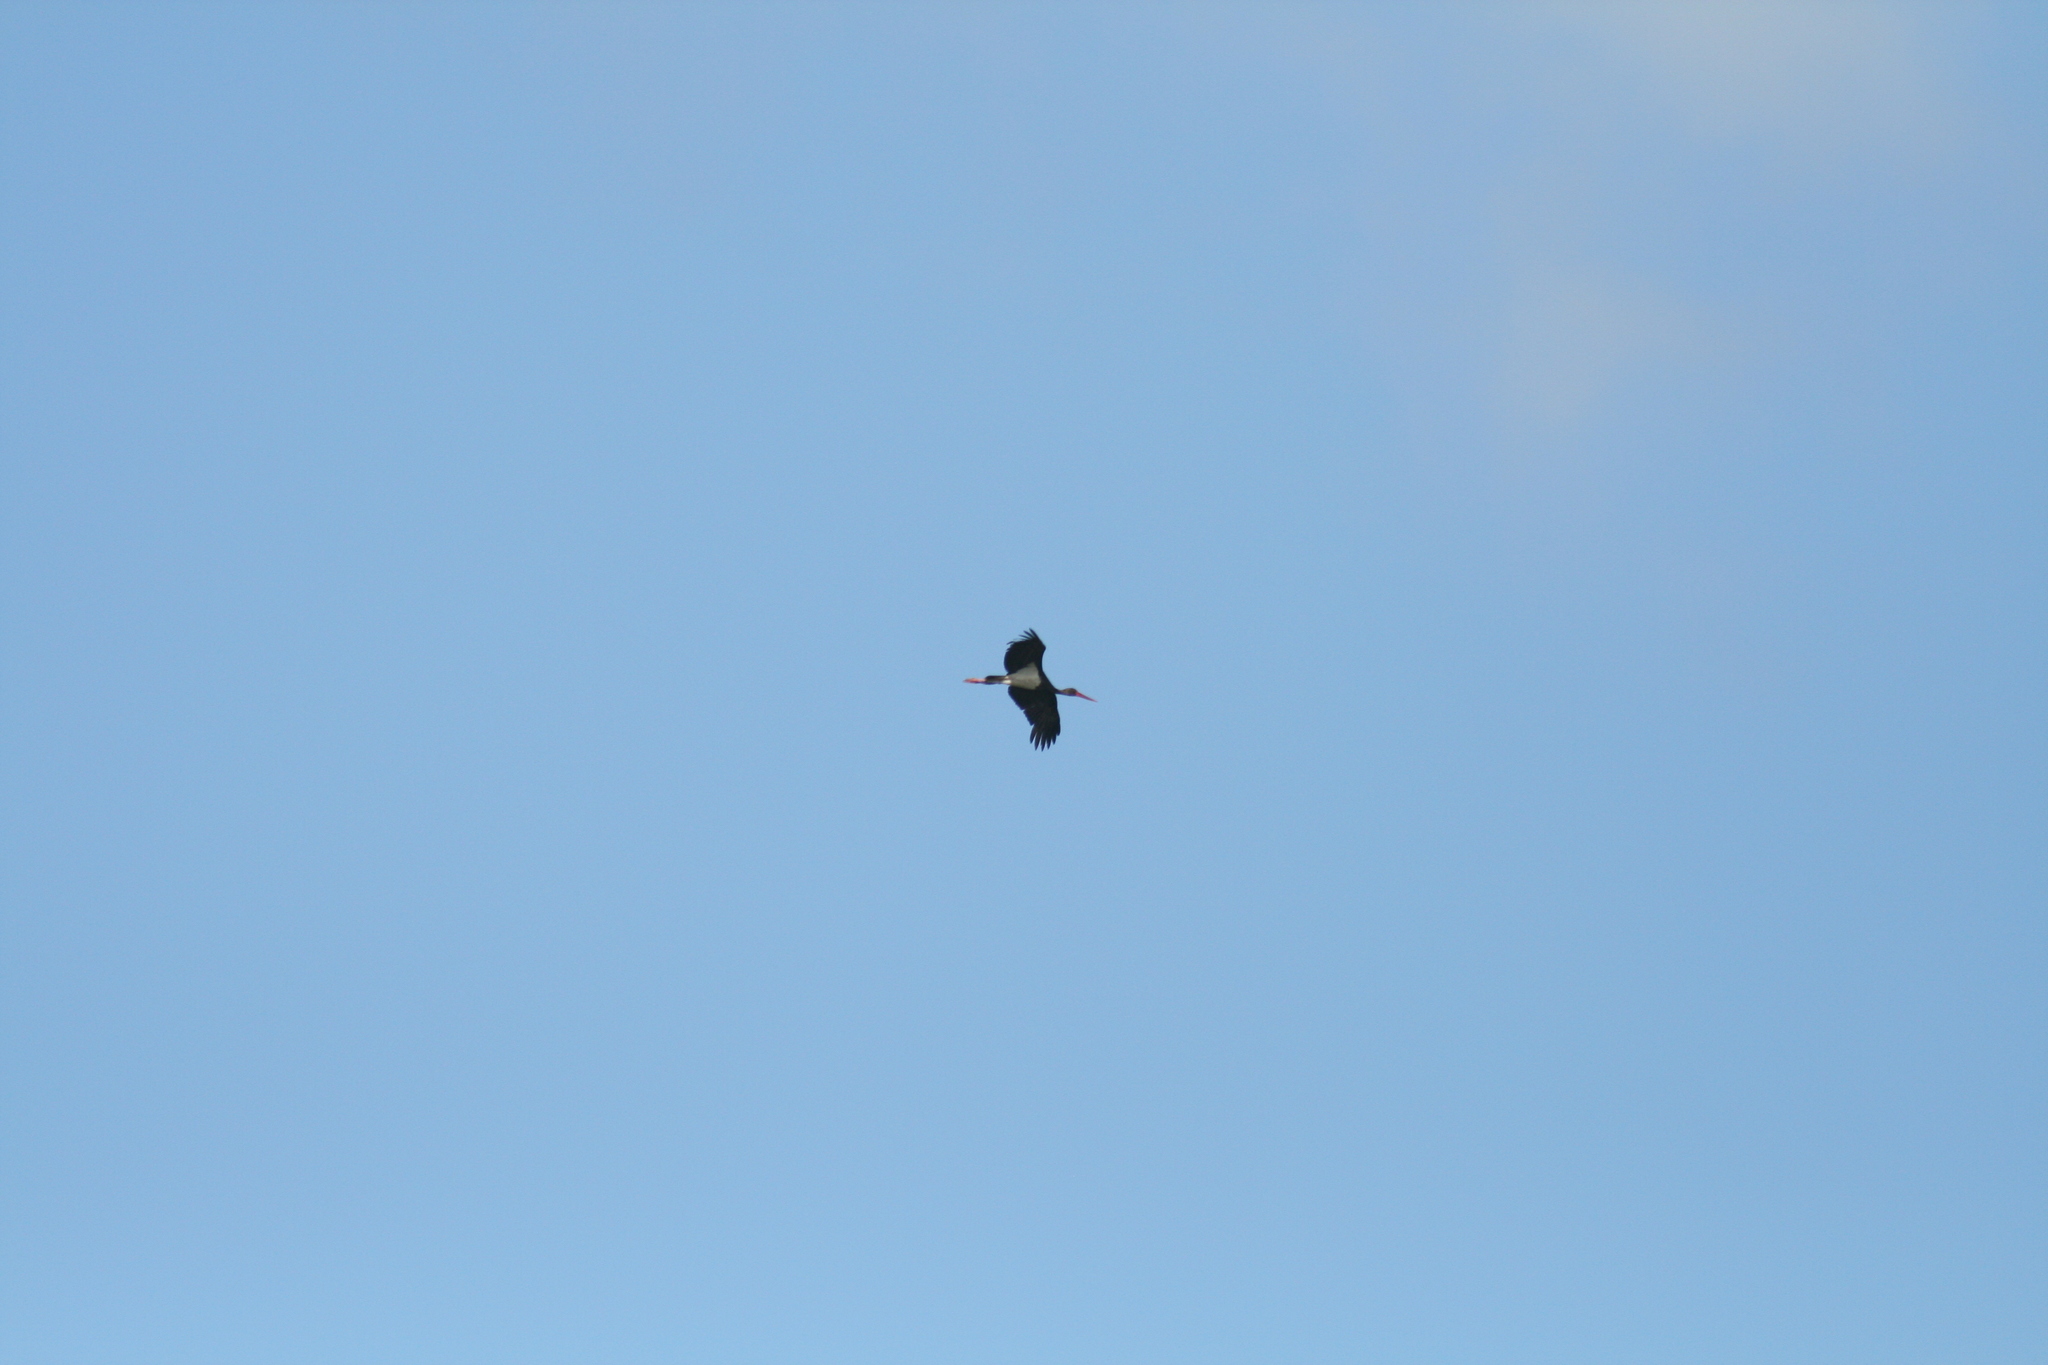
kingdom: Animalia
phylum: Chordata
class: Aves
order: Ciconiiformes
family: Ciconiidae
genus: Ciconia
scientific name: Ciconia nigra
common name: Black stork
